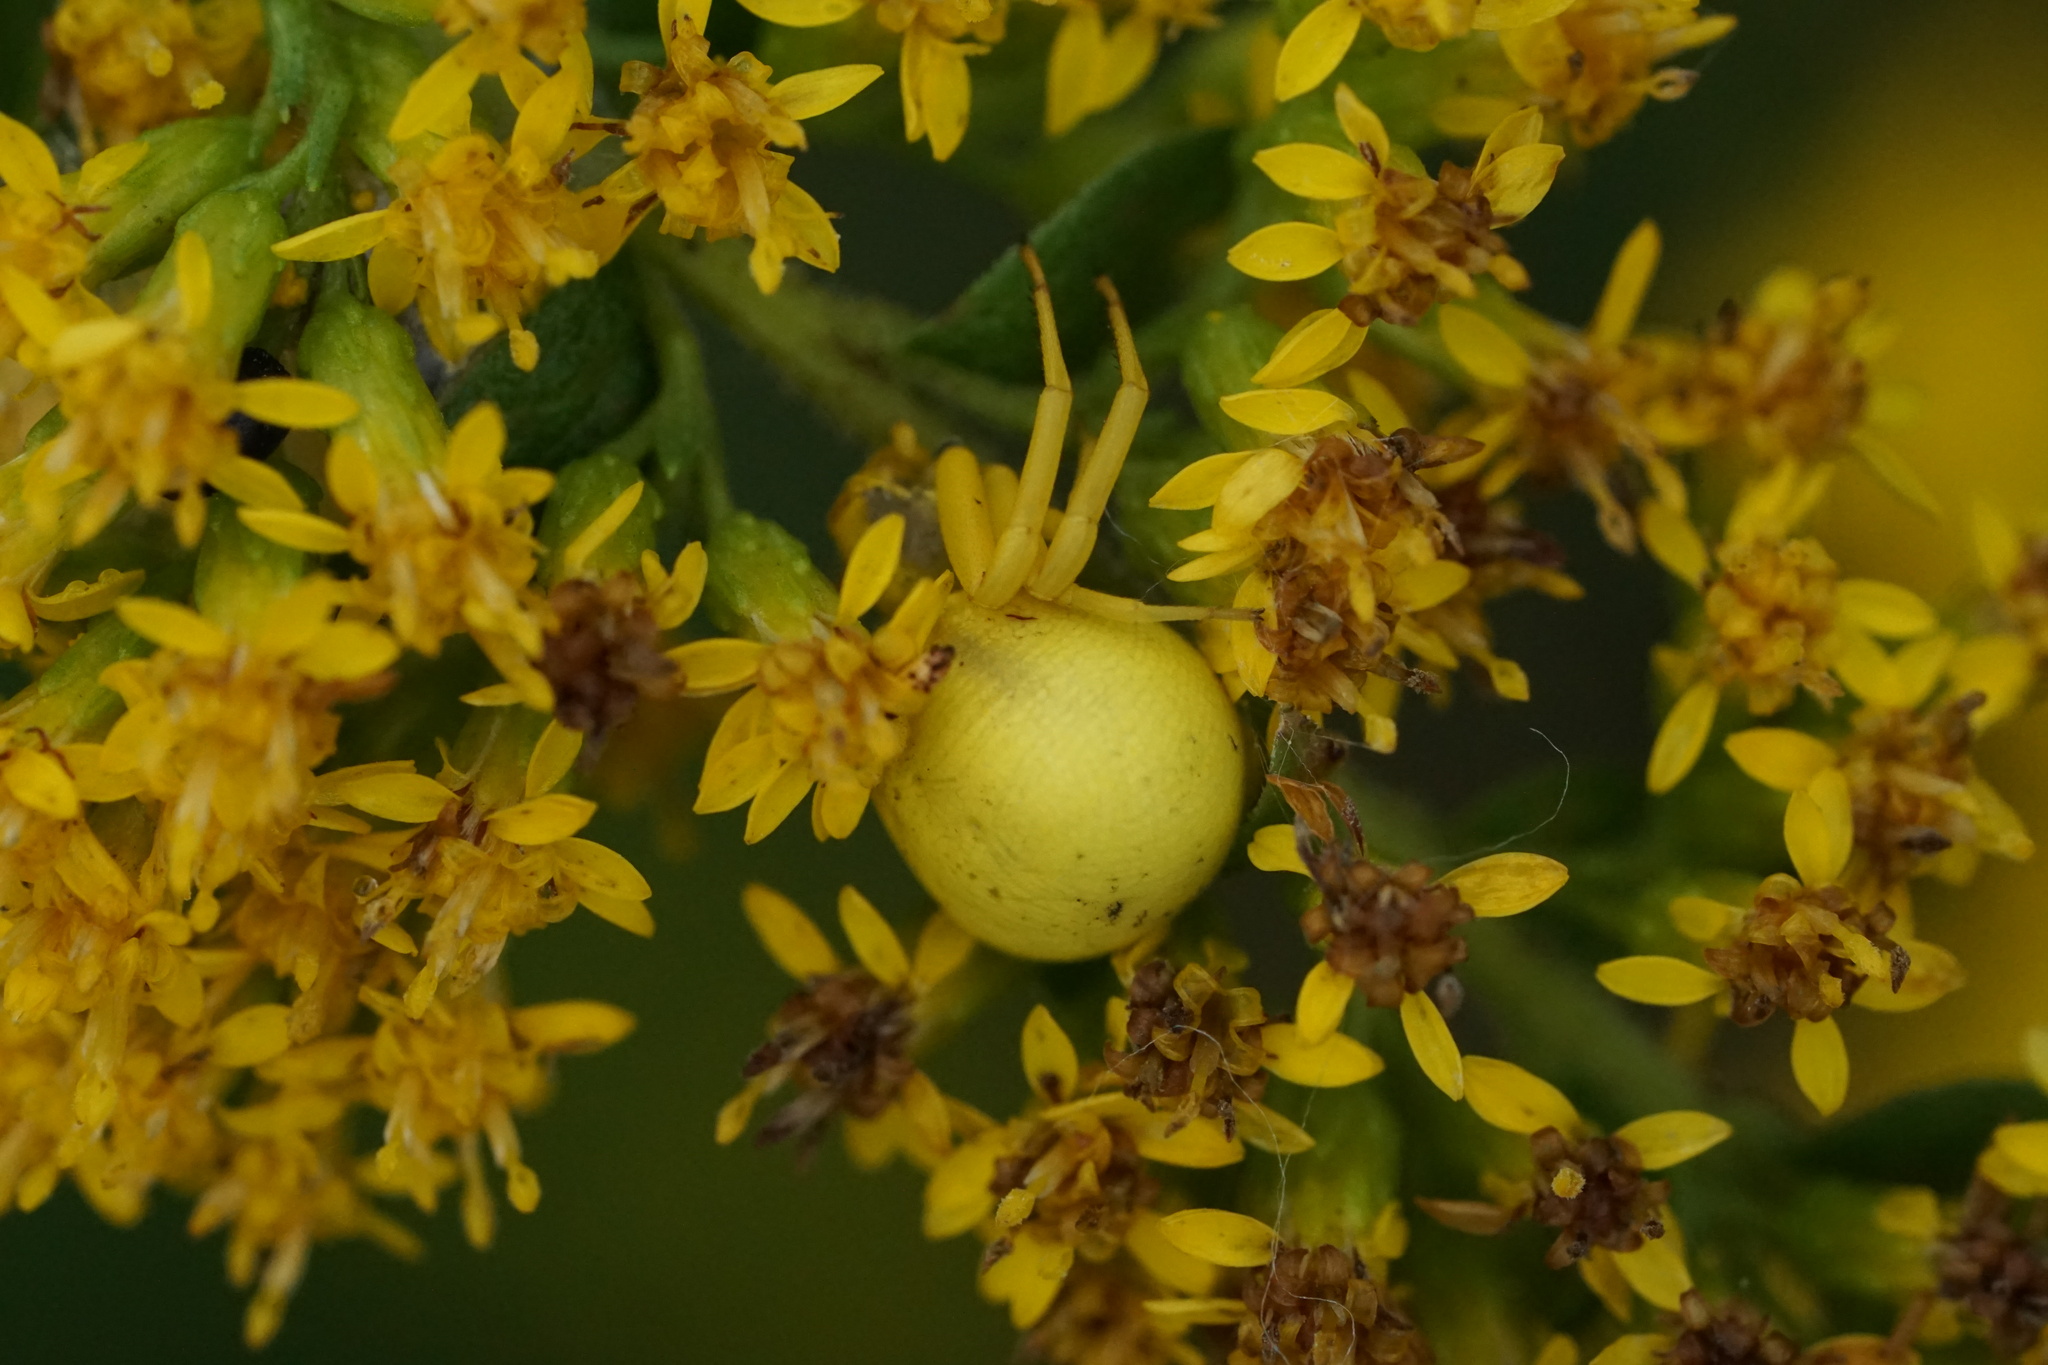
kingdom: Animalia
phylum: Arthropoda
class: Arachnida
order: Araneae
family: Thomisidae
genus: Misumenoides
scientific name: Misumenoides formosipes
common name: White-banded crab spider
